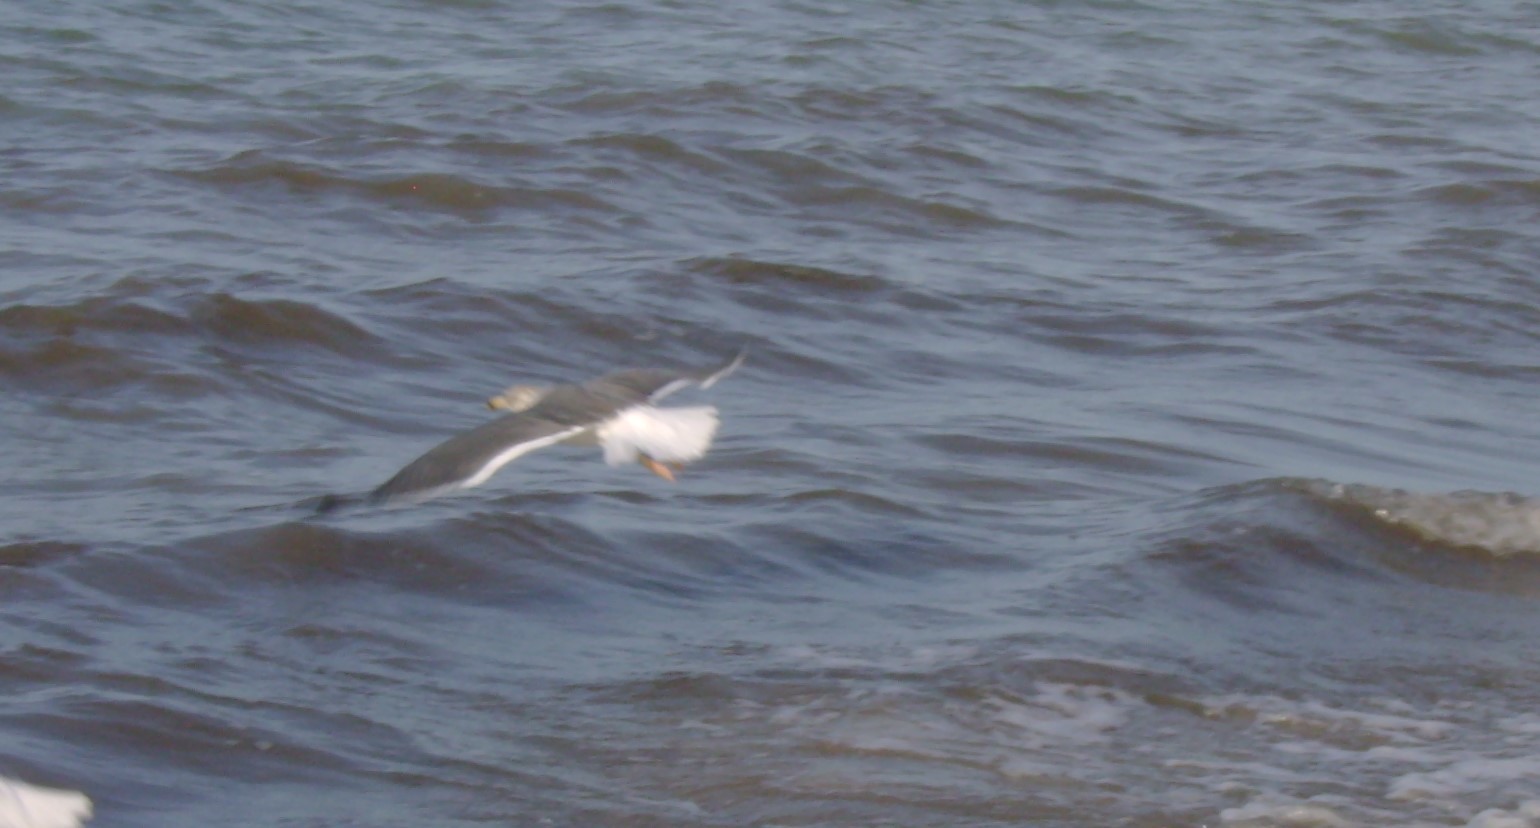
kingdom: Animalia
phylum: Chordata
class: Aves
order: Charadriiformes
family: Laridae
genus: Larus
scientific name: Larus fuscus
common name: Lesser black-backed gull
